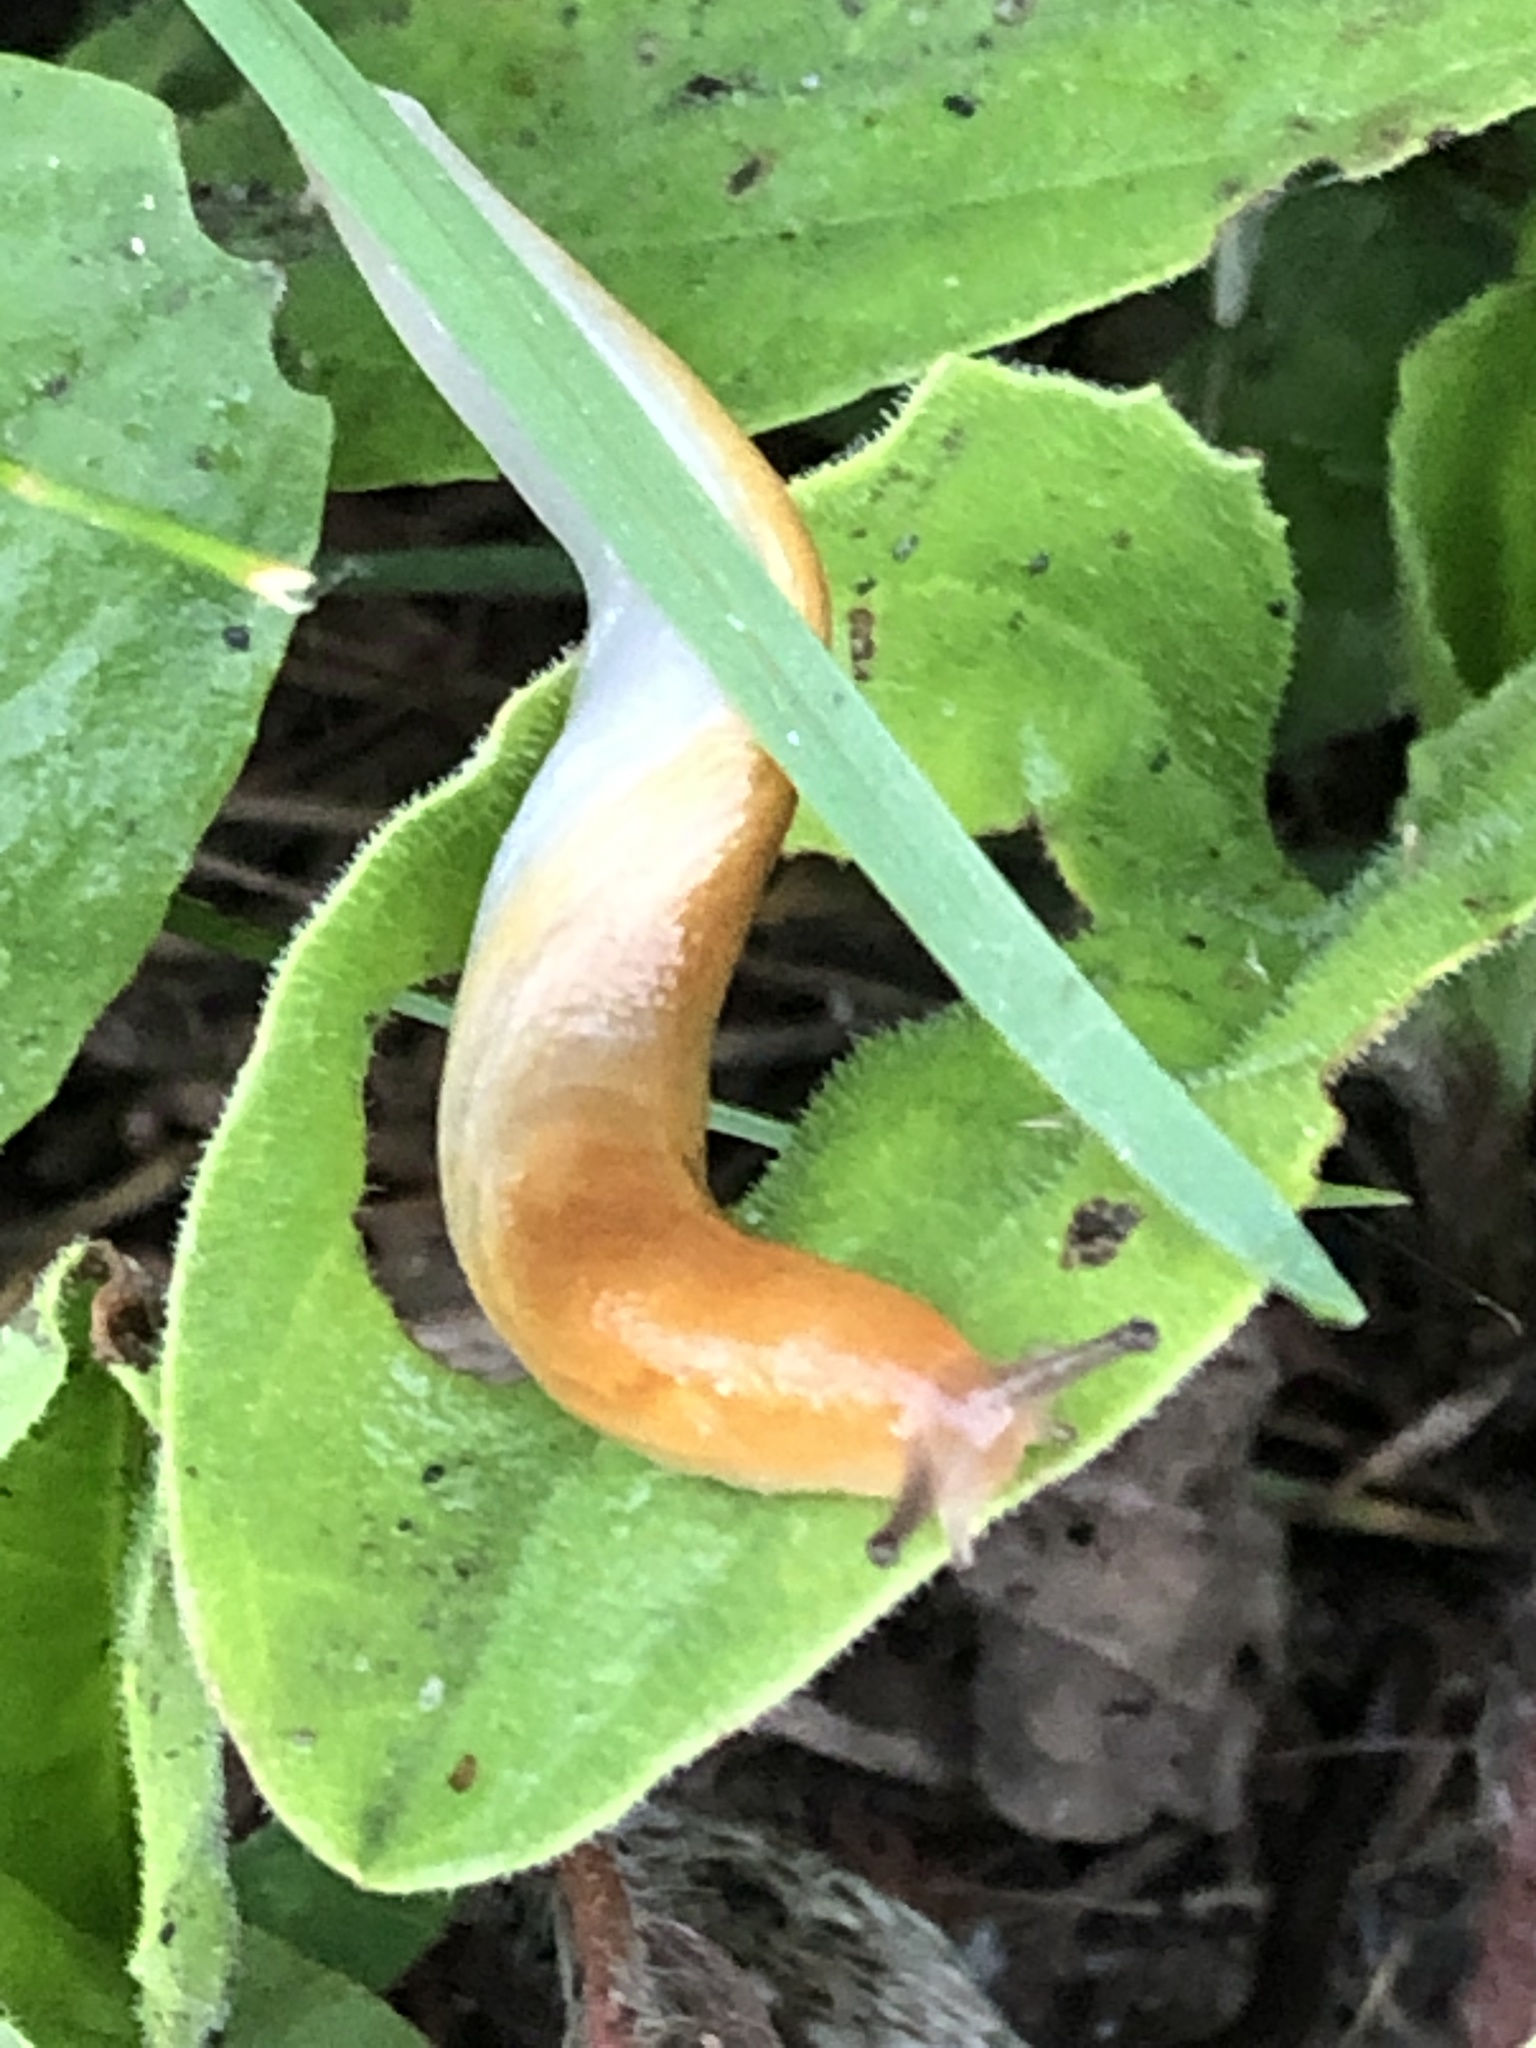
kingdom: Animalia
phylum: Mollusca
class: Gastropoda
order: Stylommatophora
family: Arionidae
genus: Mesarion
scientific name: Mesarion
